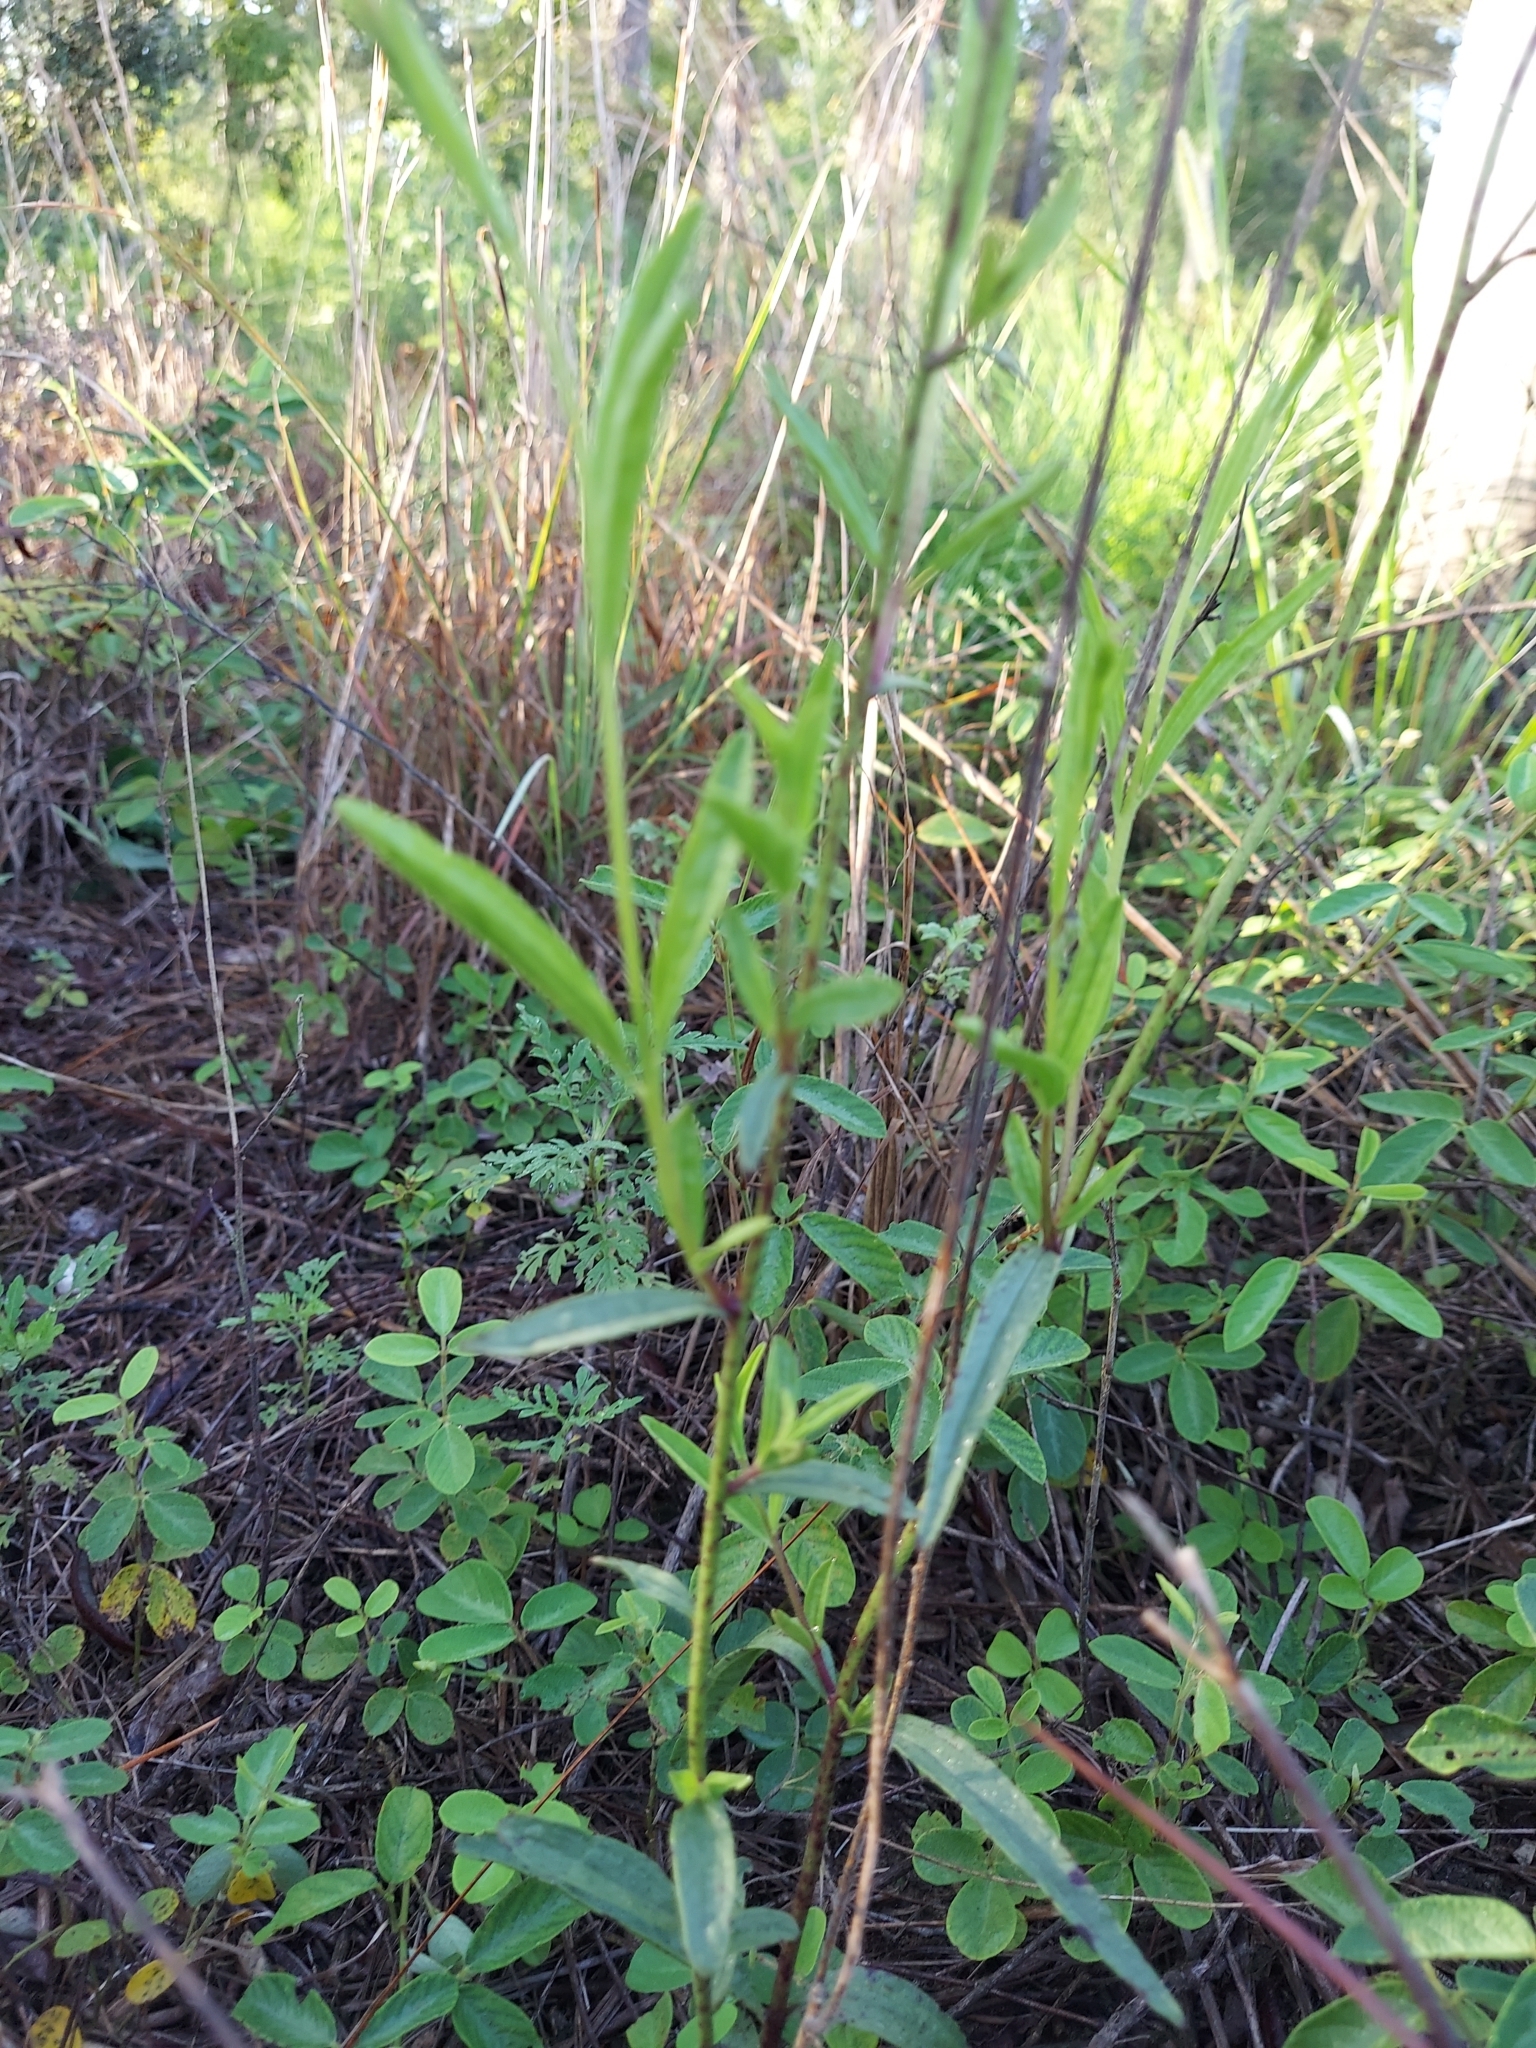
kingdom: Plantae
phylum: Tracheophyta
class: Magnoliopsida
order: Lamiales
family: Orobanchaceae
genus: Buchnera
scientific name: Buchnera floridana
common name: Florida bluehearts
